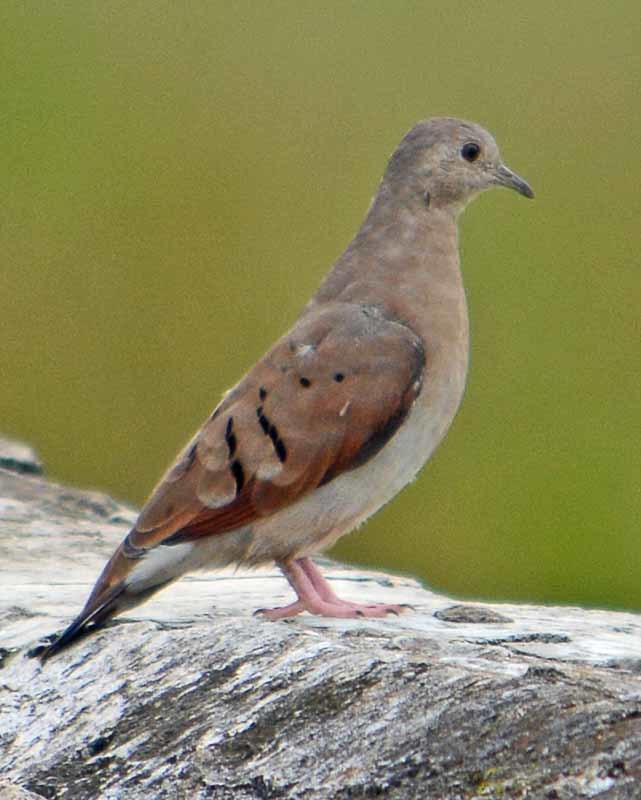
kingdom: Animalia
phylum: Chordata
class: Aves
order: Columbiformes
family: Columbidae
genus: Columbina
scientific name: Columbina talpacoti
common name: Ruddy ground dove
